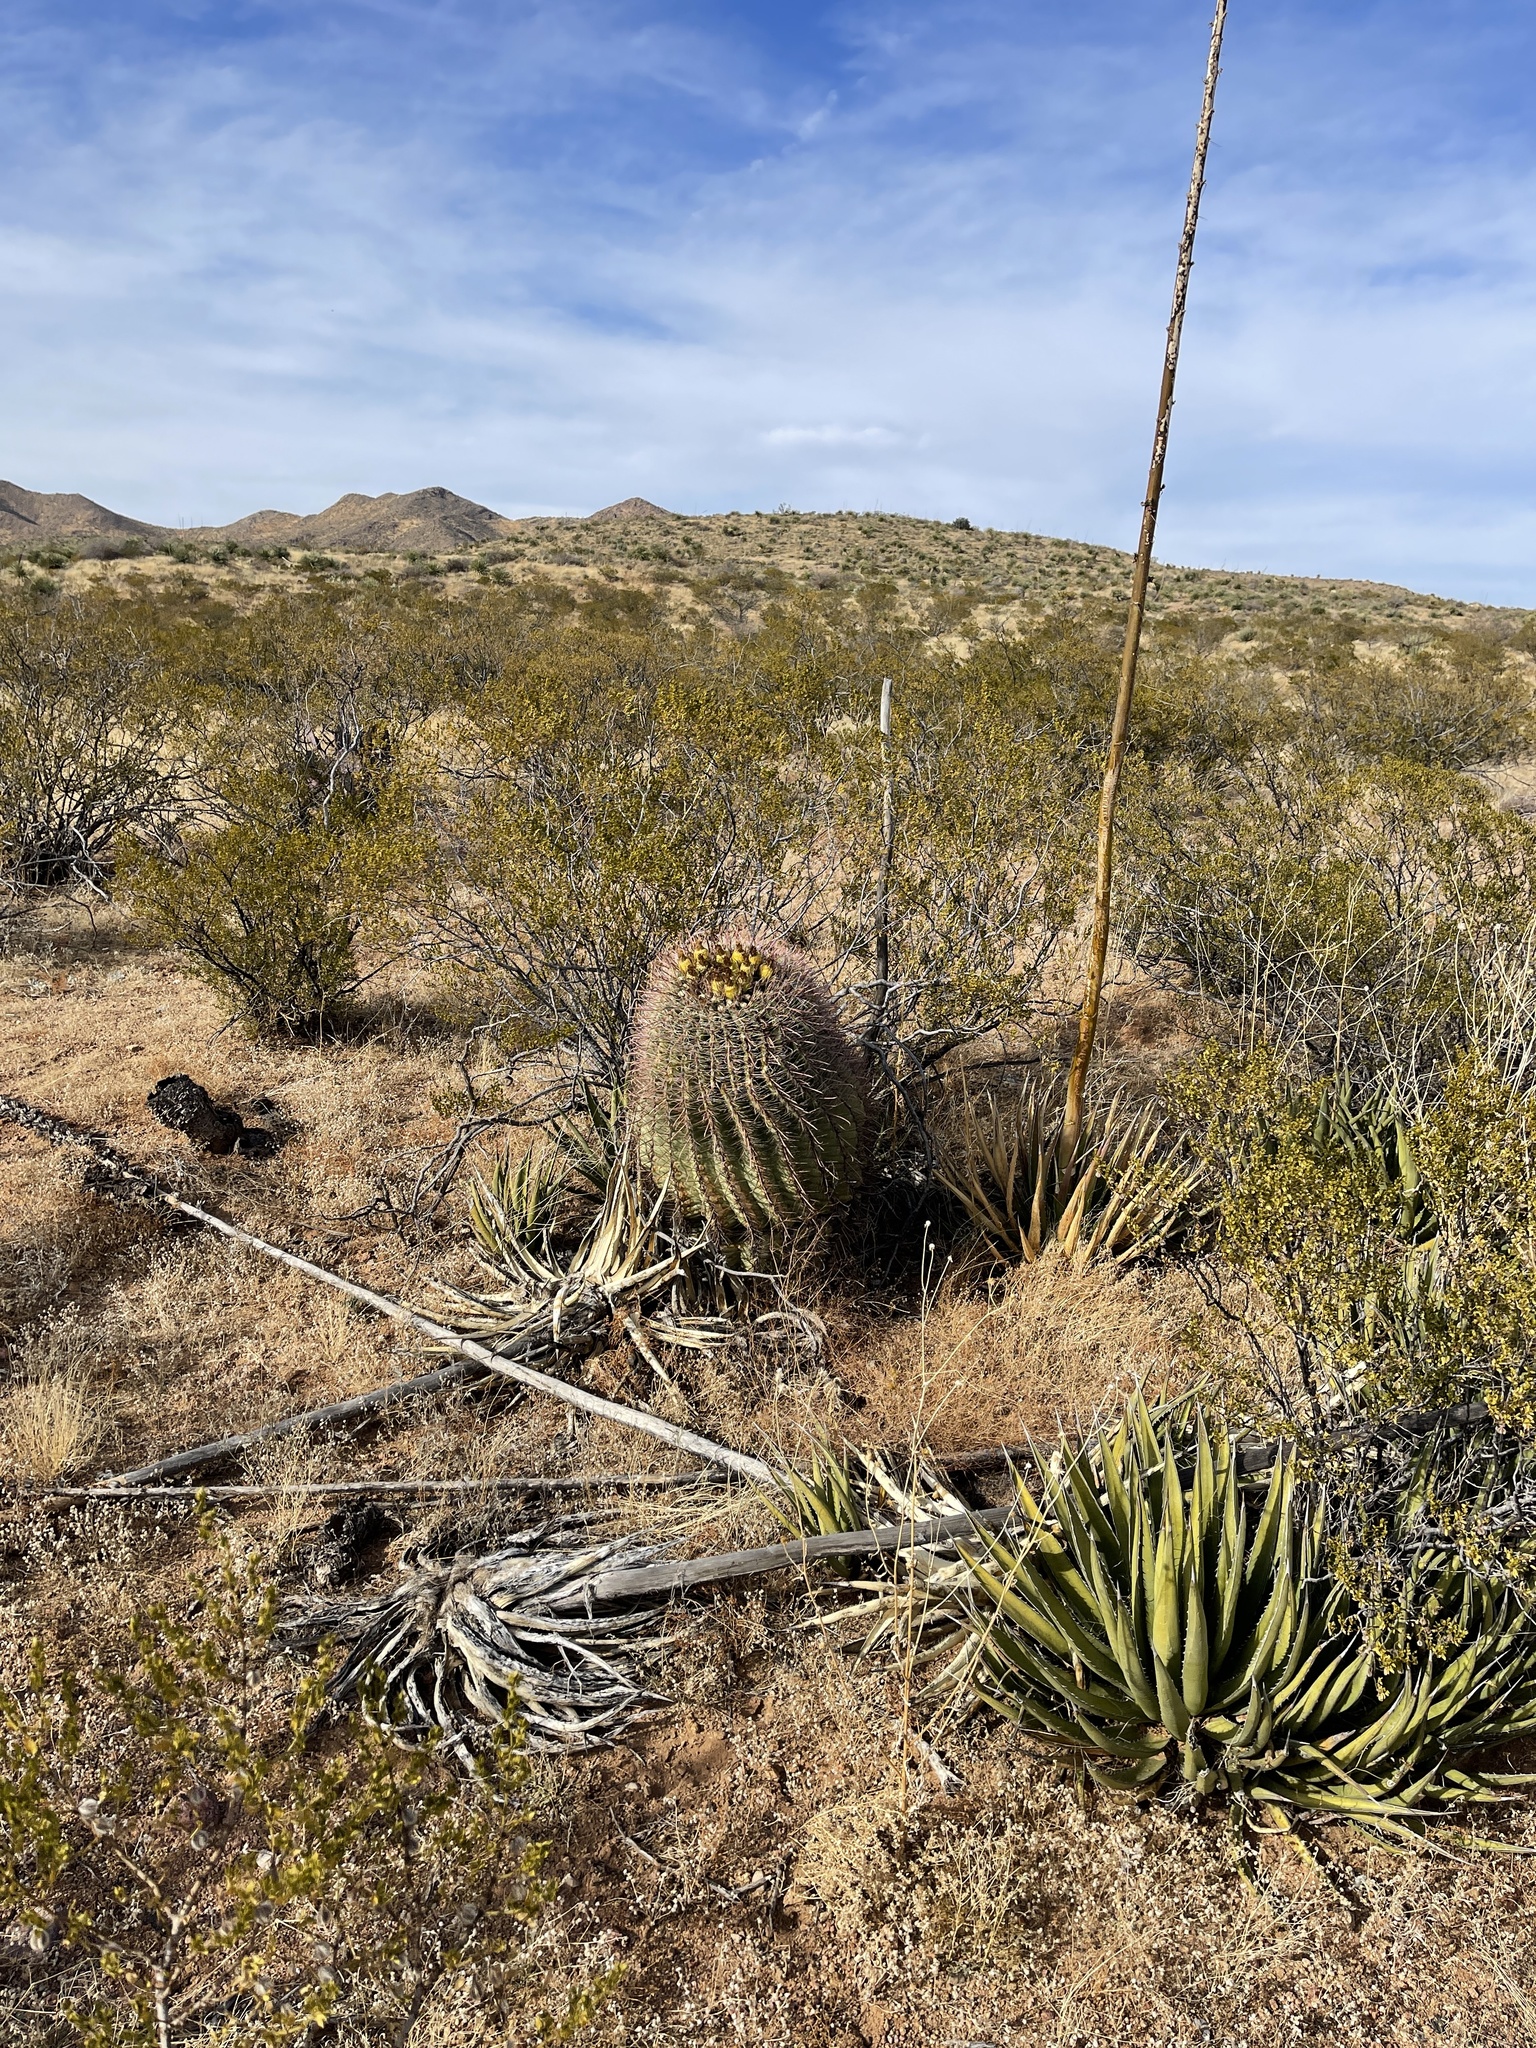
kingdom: Plantae
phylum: Tracheophyta
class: Magnoliopsida
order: Caryophyllales
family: Cactaceae
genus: Ferocactus
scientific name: Ferocactus wislizeni
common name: Candy barrel cactus
